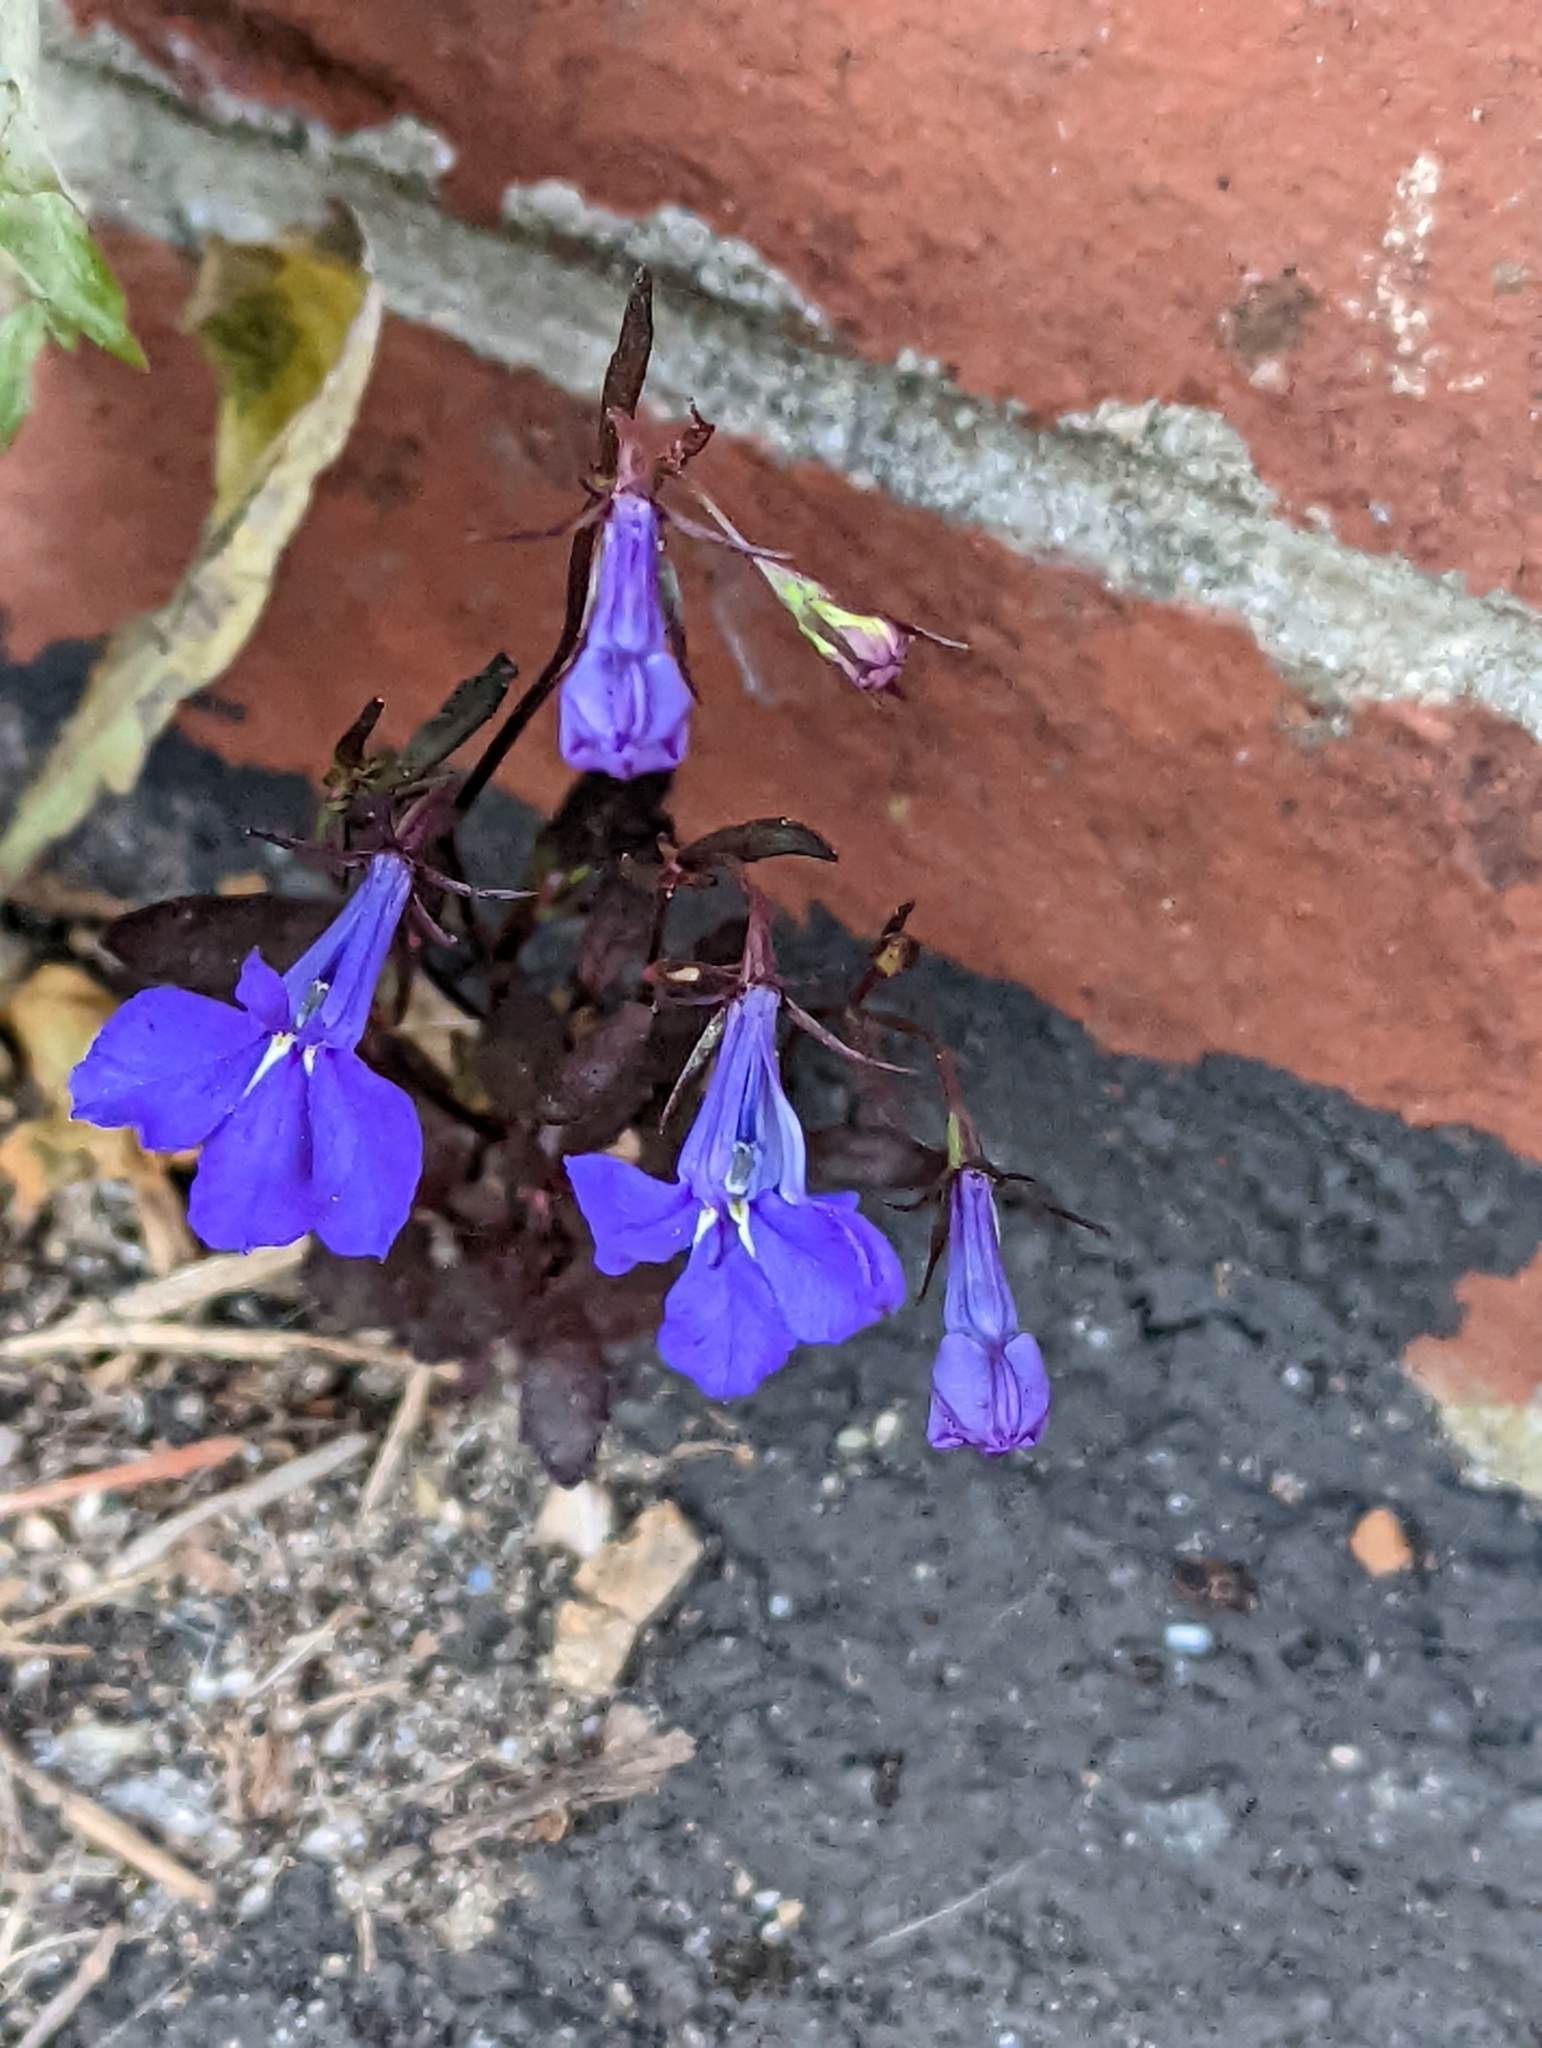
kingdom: Plantae
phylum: Tracheophyta
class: Magnoliopsida
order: Asterales
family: Campanulaceae
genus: Lobelia
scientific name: Lobelia erinus
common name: Edging lobelia
